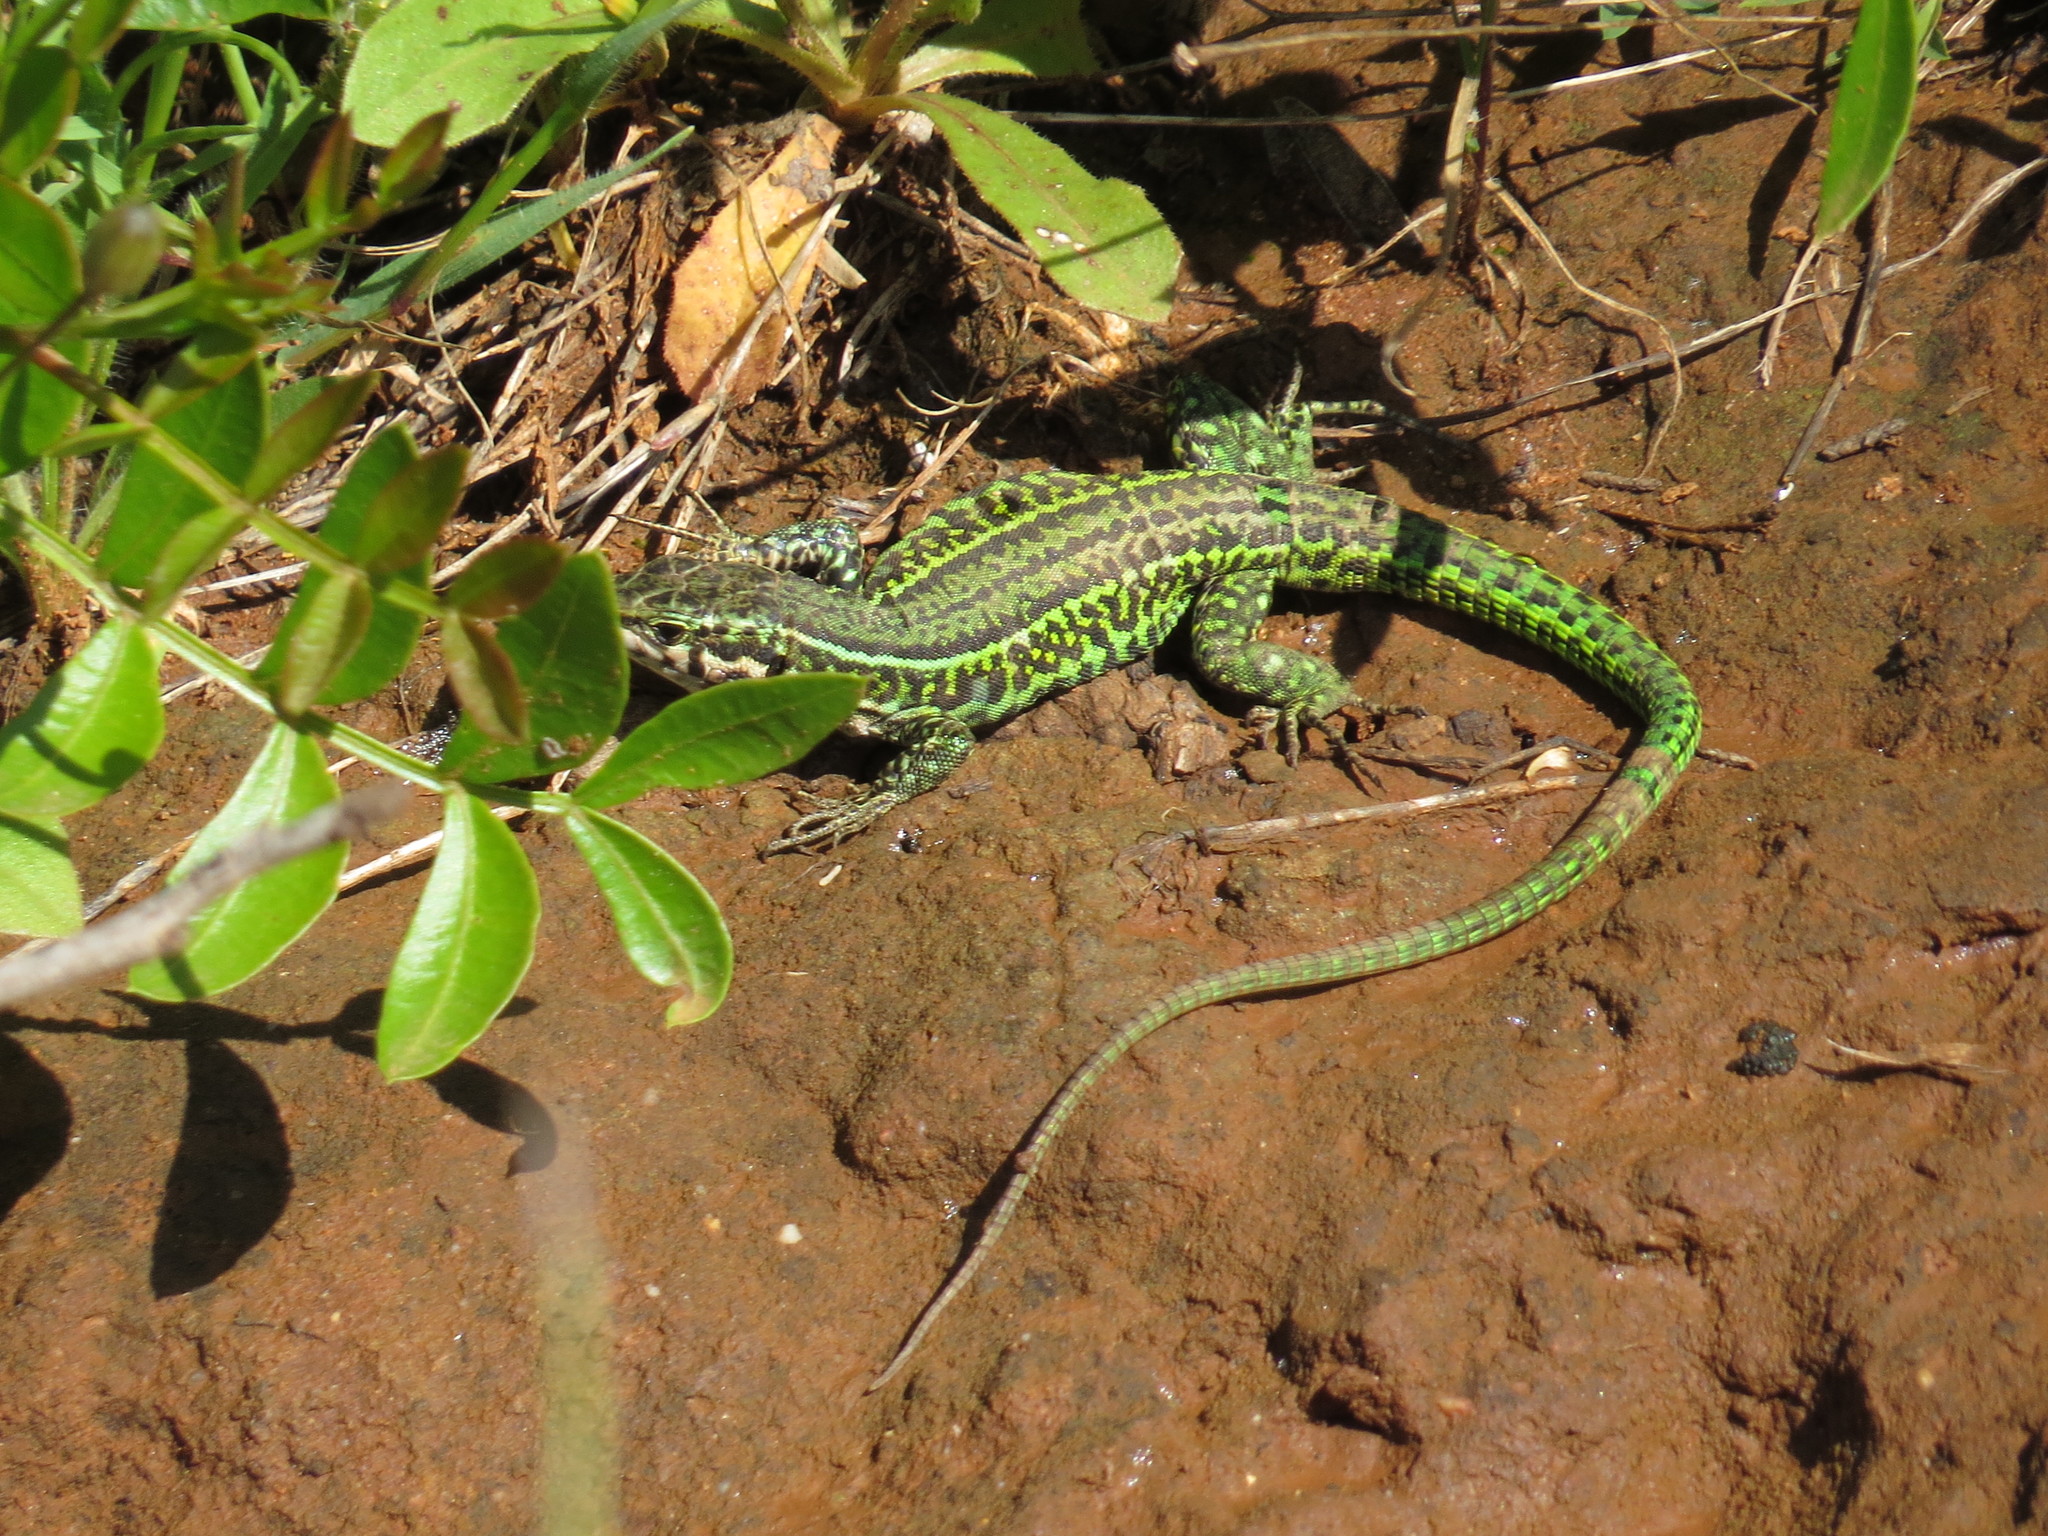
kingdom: Animalia
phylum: Chordata
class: Squamata
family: Lacertidae
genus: Podarcis
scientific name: Podarcis tiliguerta
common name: Tyrrhenian wall lizard
